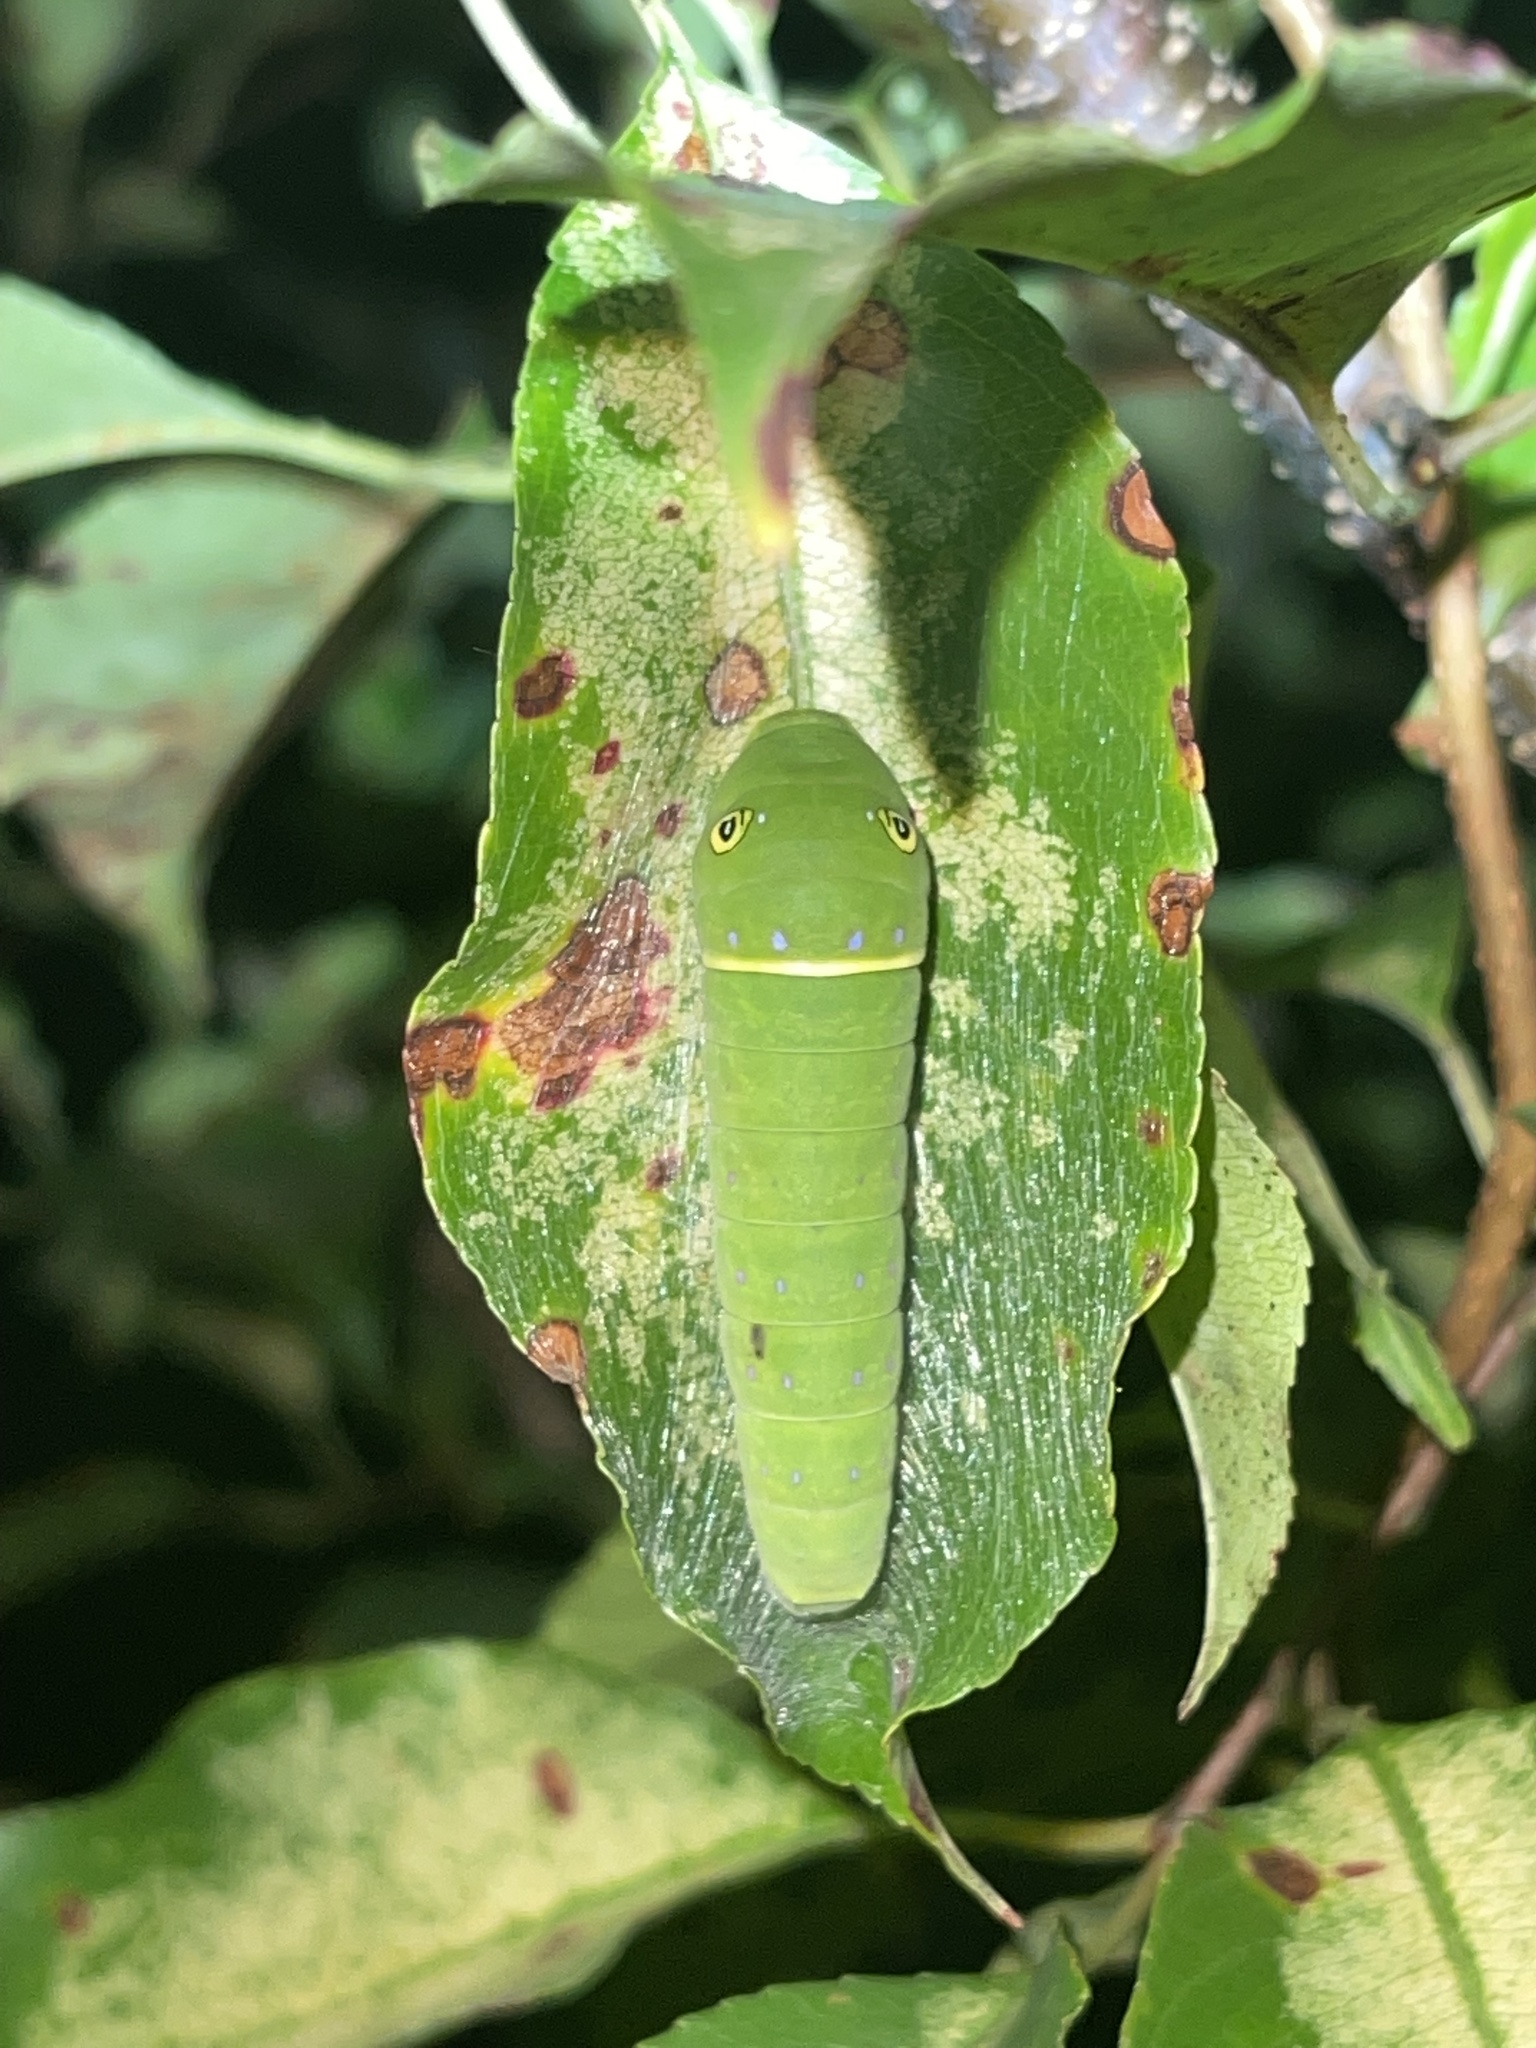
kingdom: Animalia
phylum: Arthropoda
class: Insecta
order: Lepidoptera
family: Papilionidae
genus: Papilio
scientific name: Papilio glaucus
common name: Tiger swallowtail
